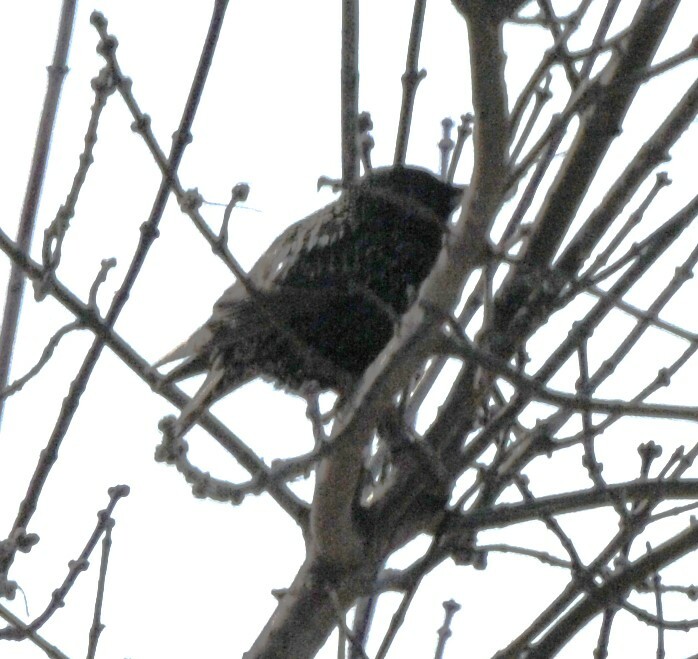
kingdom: Animalia
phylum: Chordata
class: Aves
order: Passeriformes
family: Sturnidae
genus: Sturnus
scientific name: Sturnus vulgaris
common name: Common starling
